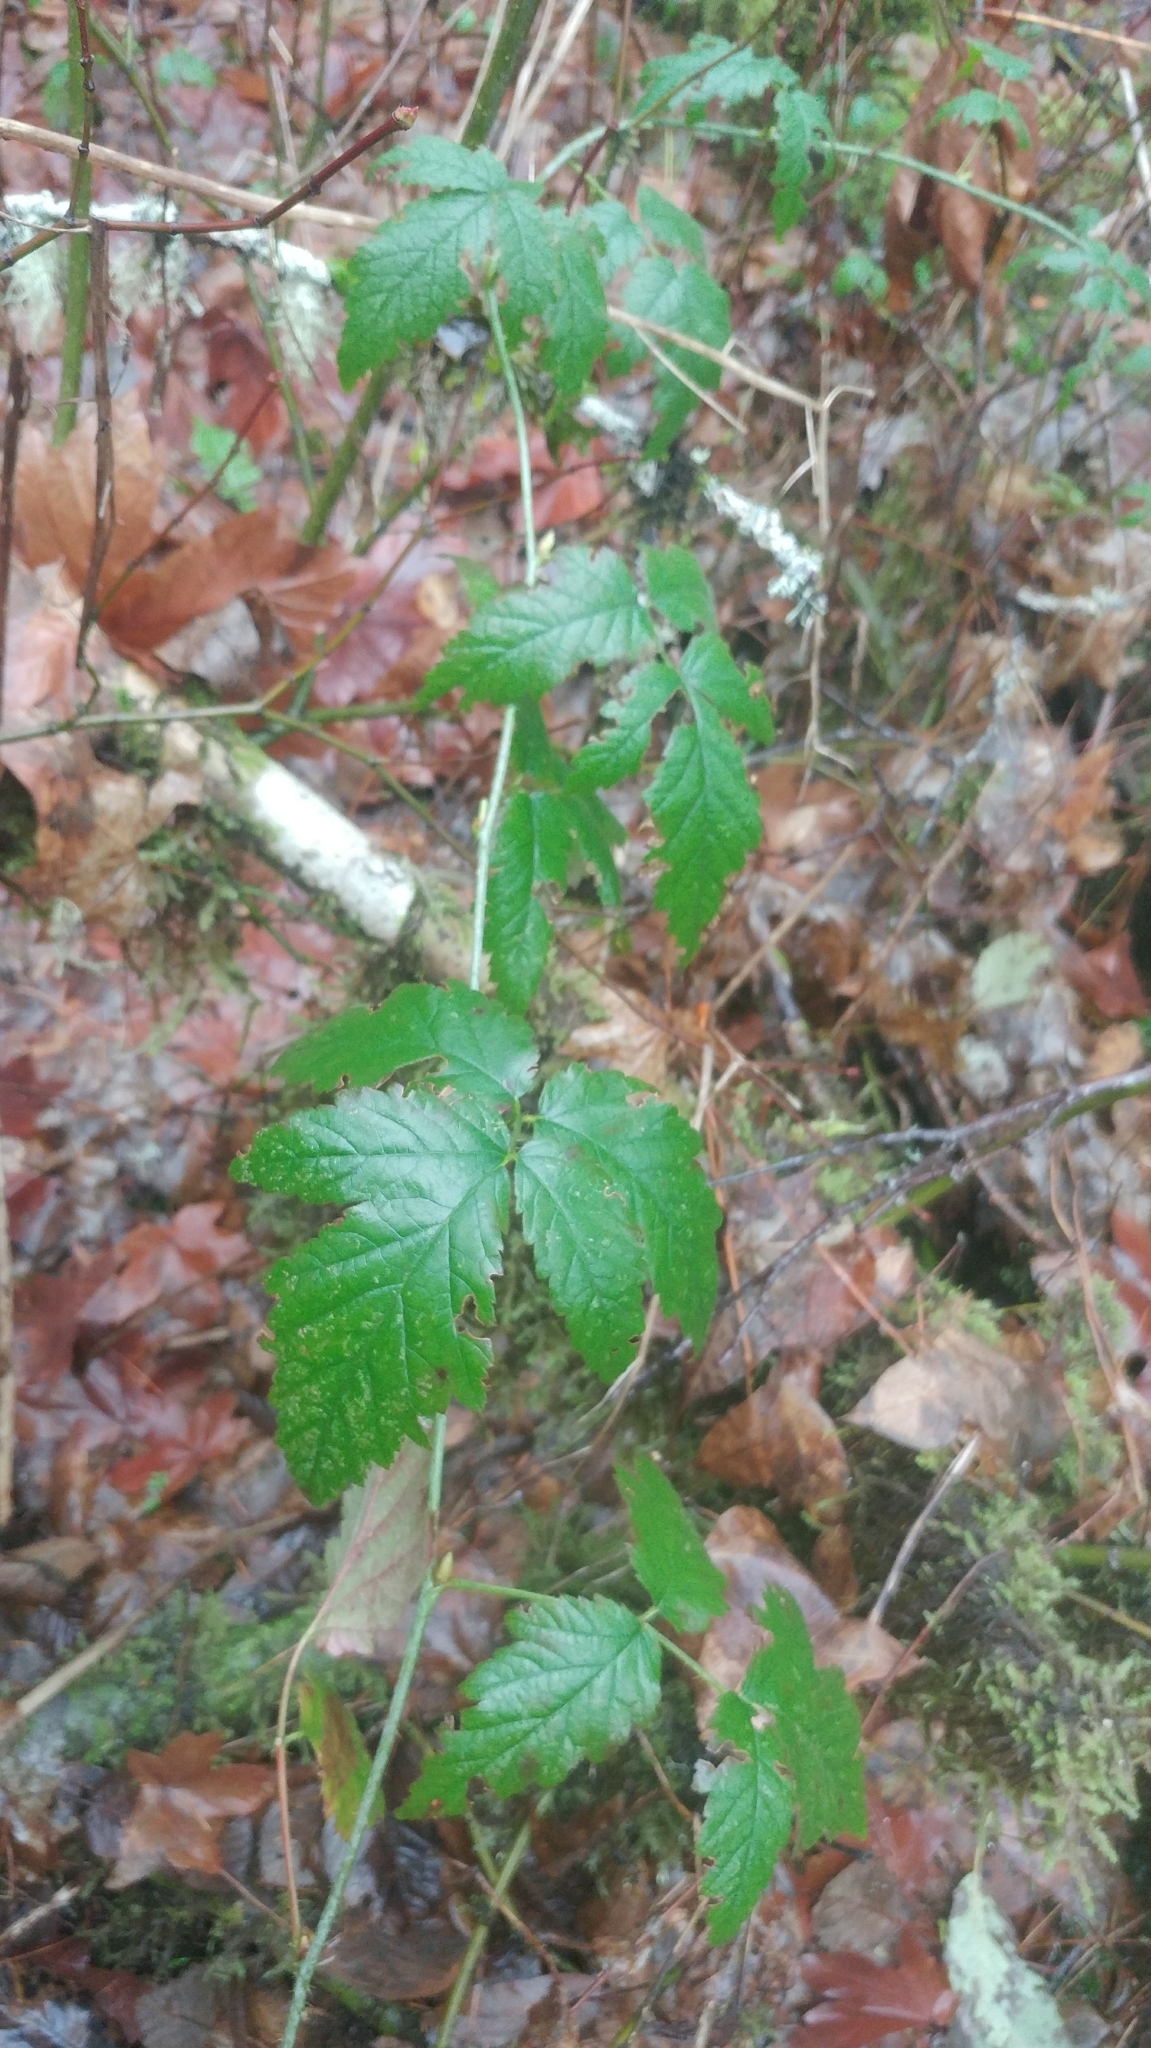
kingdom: Plantae
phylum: Tracheophyta
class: Magnoliopsida
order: Rosales
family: Rosaceae
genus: Rubus
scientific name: Rubus ursinus
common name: Pacific blackberry
